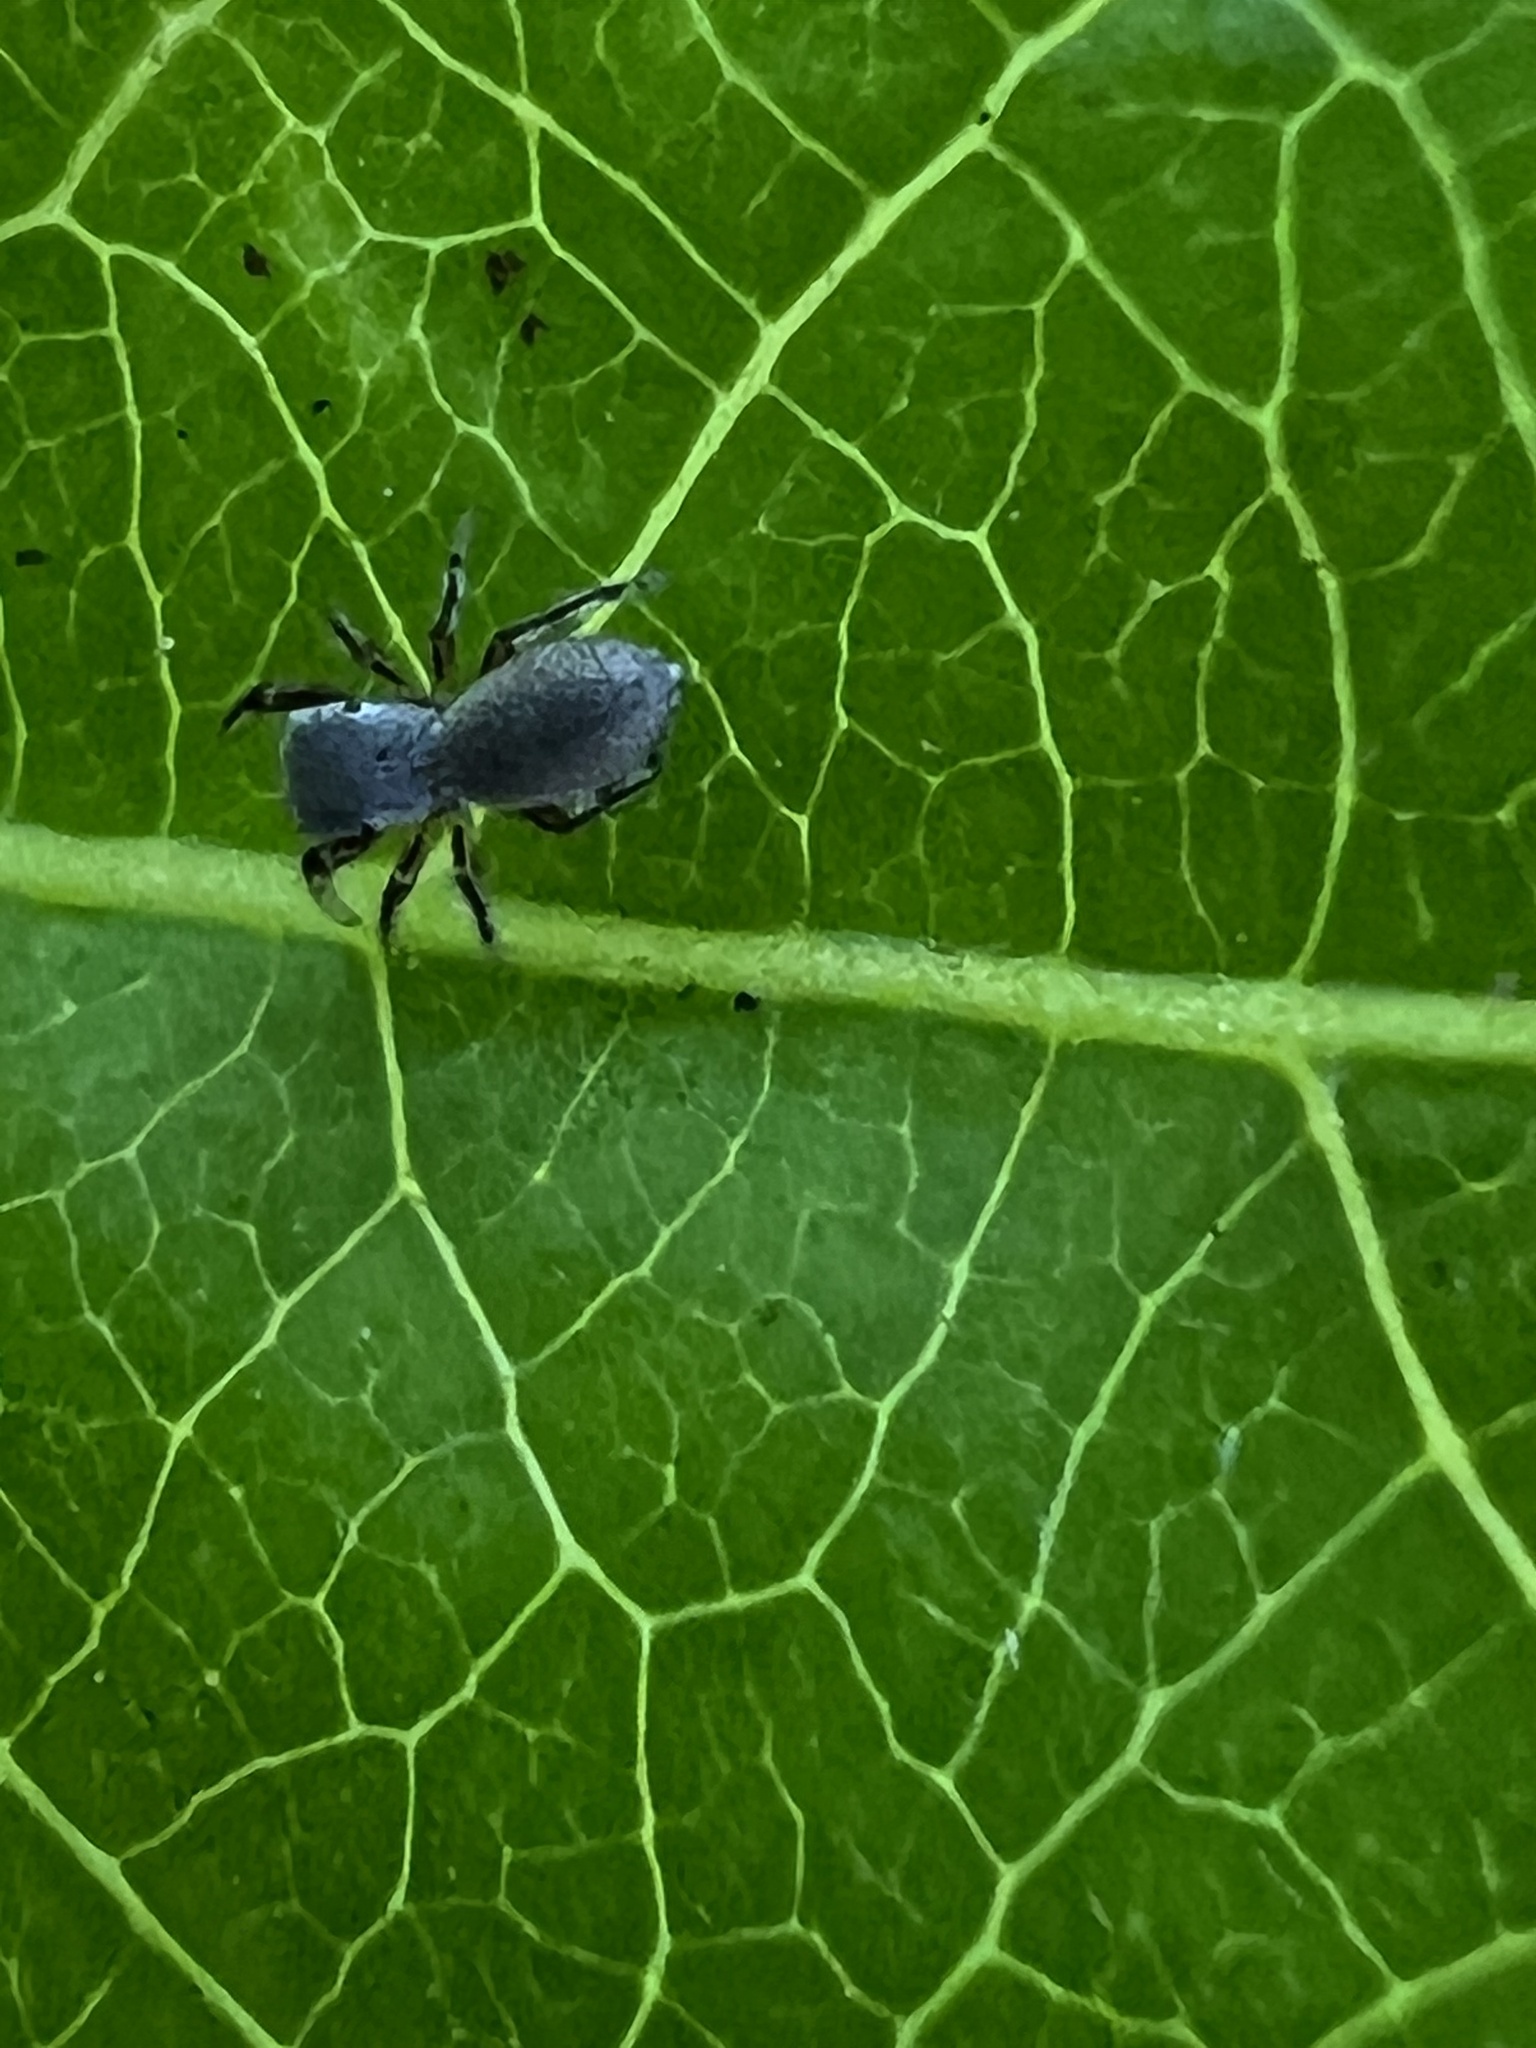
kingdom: Animalia
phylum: Arthropoda
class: Arachnida
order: Araneae
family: Salticidae
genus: Tutelina
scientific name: Tutelina similis
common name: Thick-spined jumping spider
